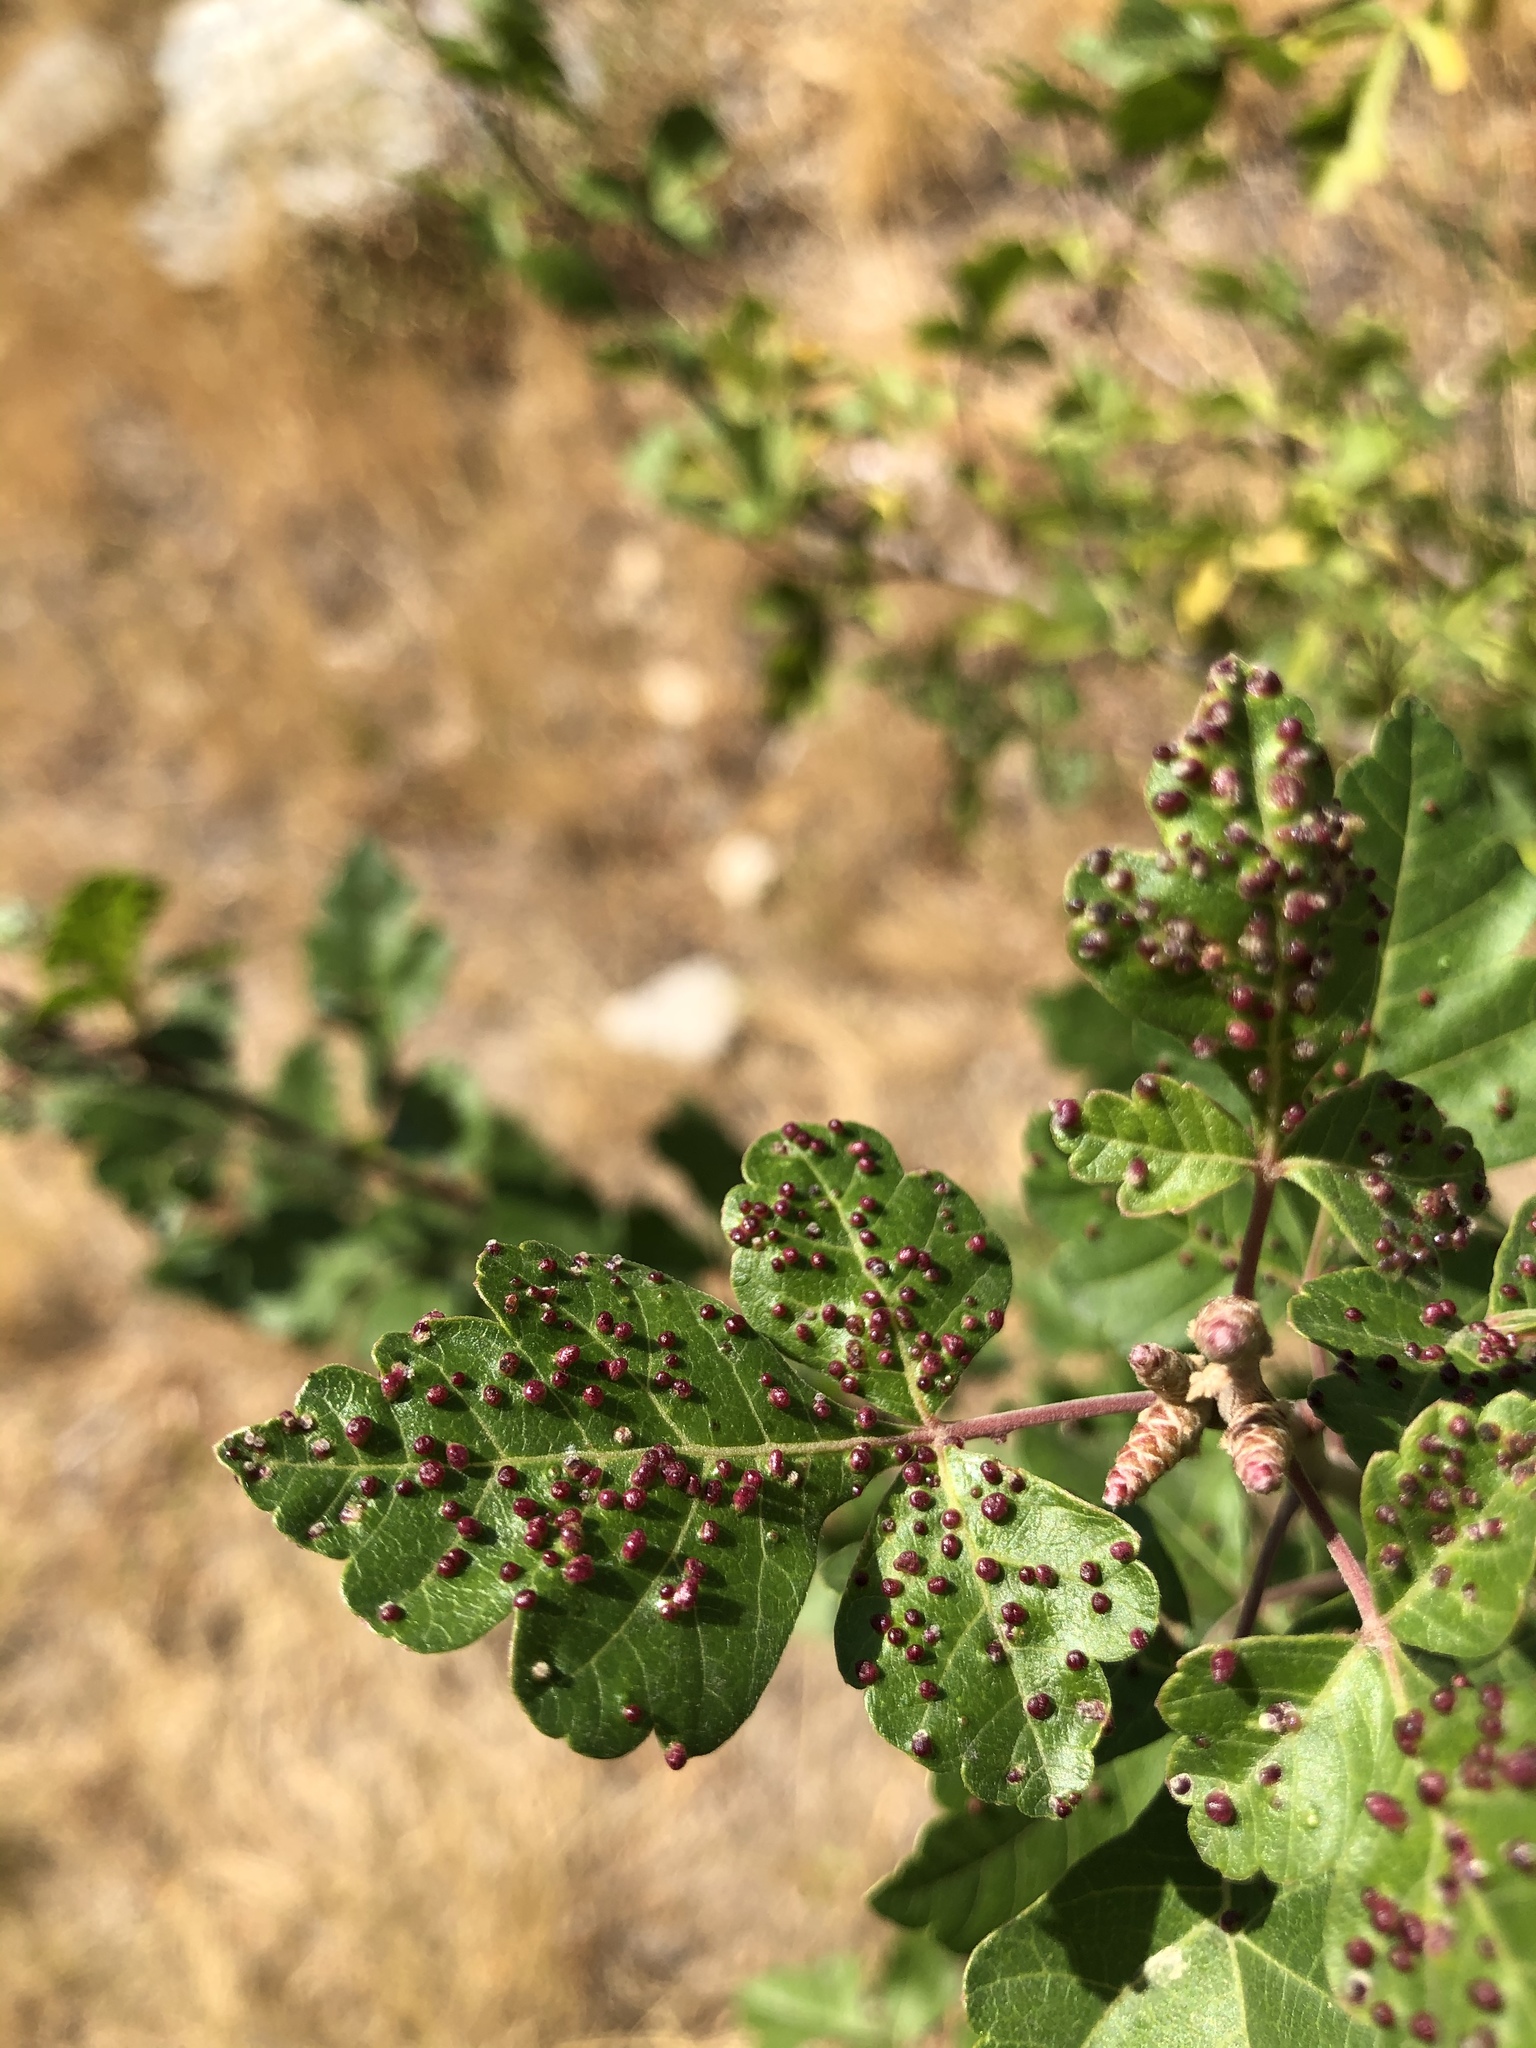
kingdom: Animalia
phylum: Arthropoda
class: Arachnida
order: Trombidiformes
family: Eriophyidae
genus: Aculops
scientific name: Aculops
